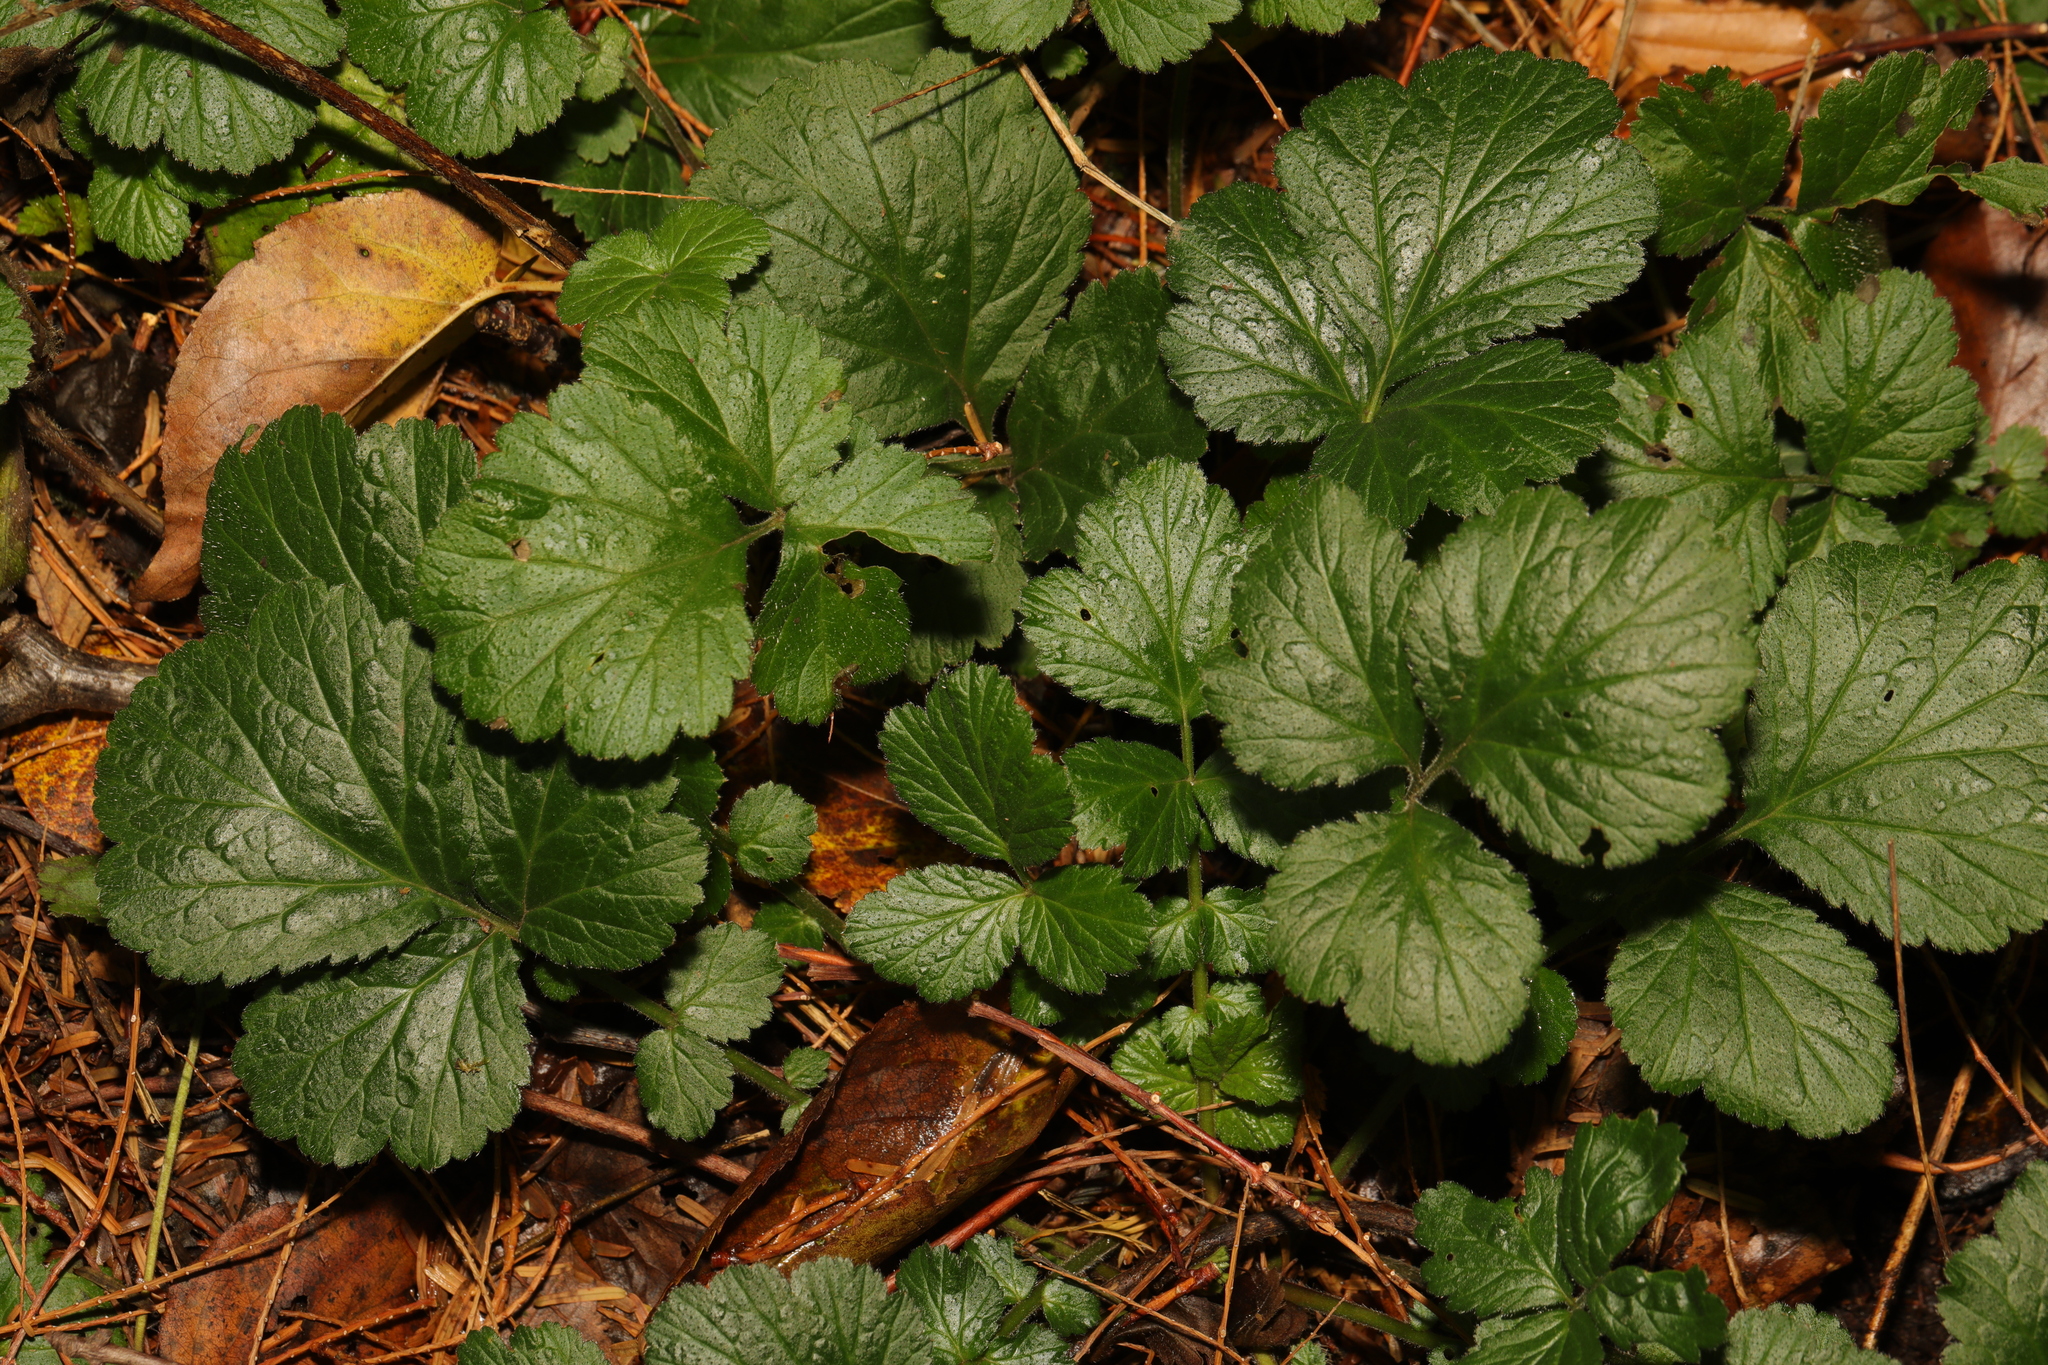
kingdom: Plantae
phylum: Tracheophyta
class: Magnoliopsida
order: Rosales
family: Rosaceae
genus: Geum
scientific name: Geum urbanum
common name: Wood avens
